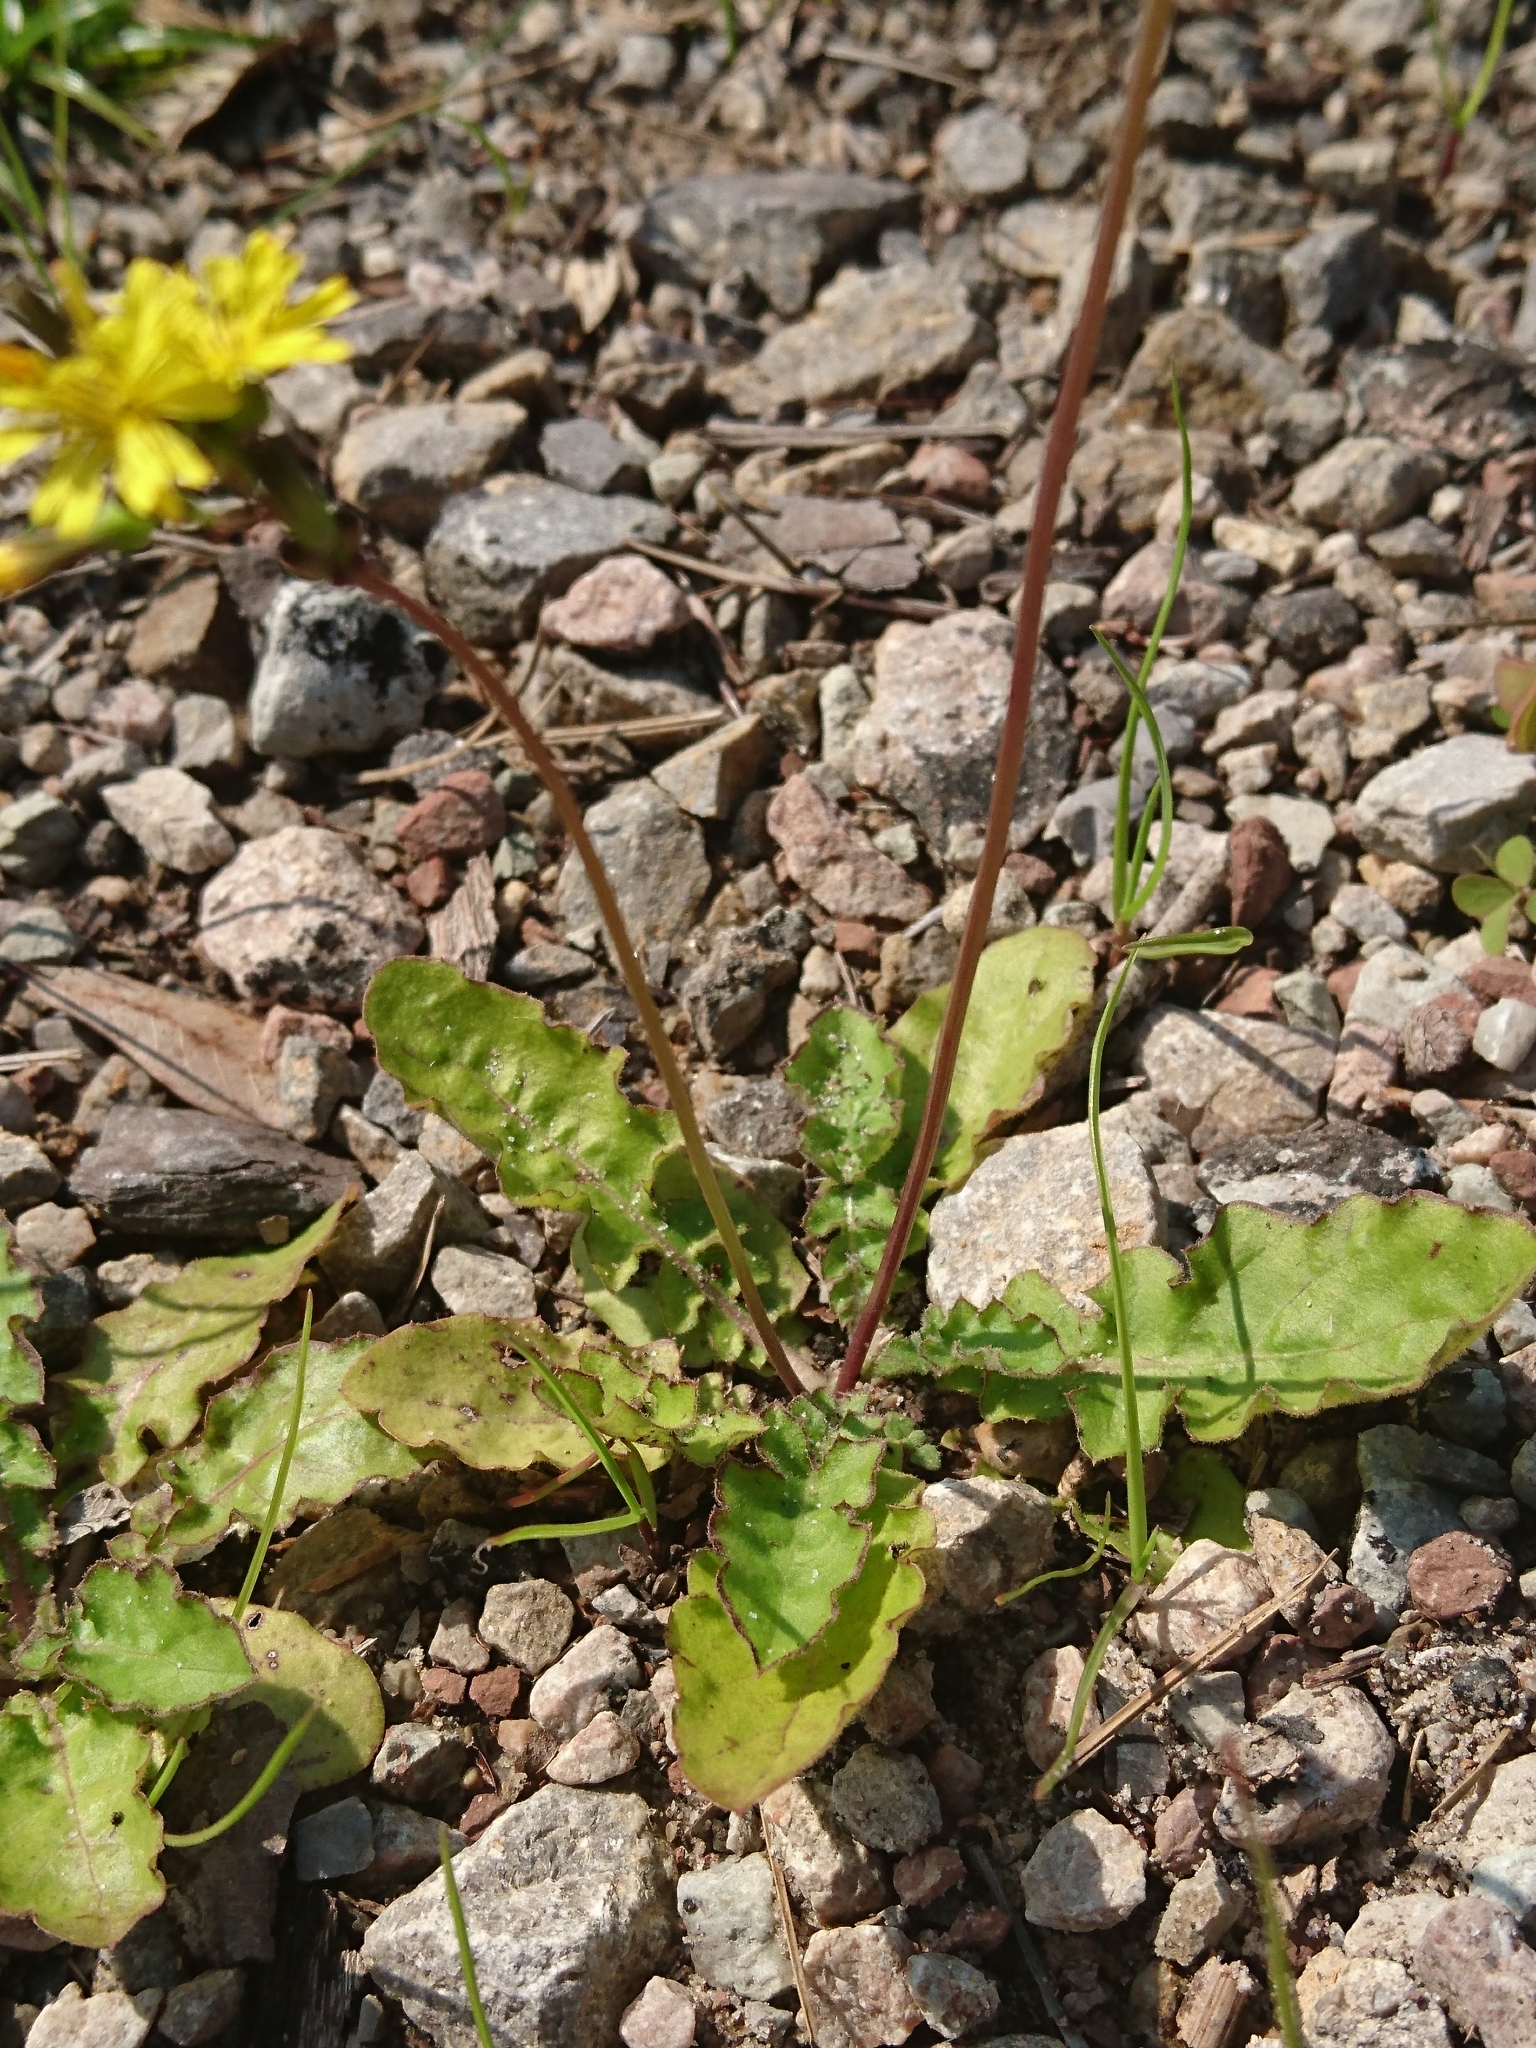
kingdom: Plantae
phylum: Tracheophyta
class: Magnoliopsida
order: Asterales
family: Asteraceae
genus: Youngia
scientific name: Youngia japonica
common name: Oriental false hawksbeard
